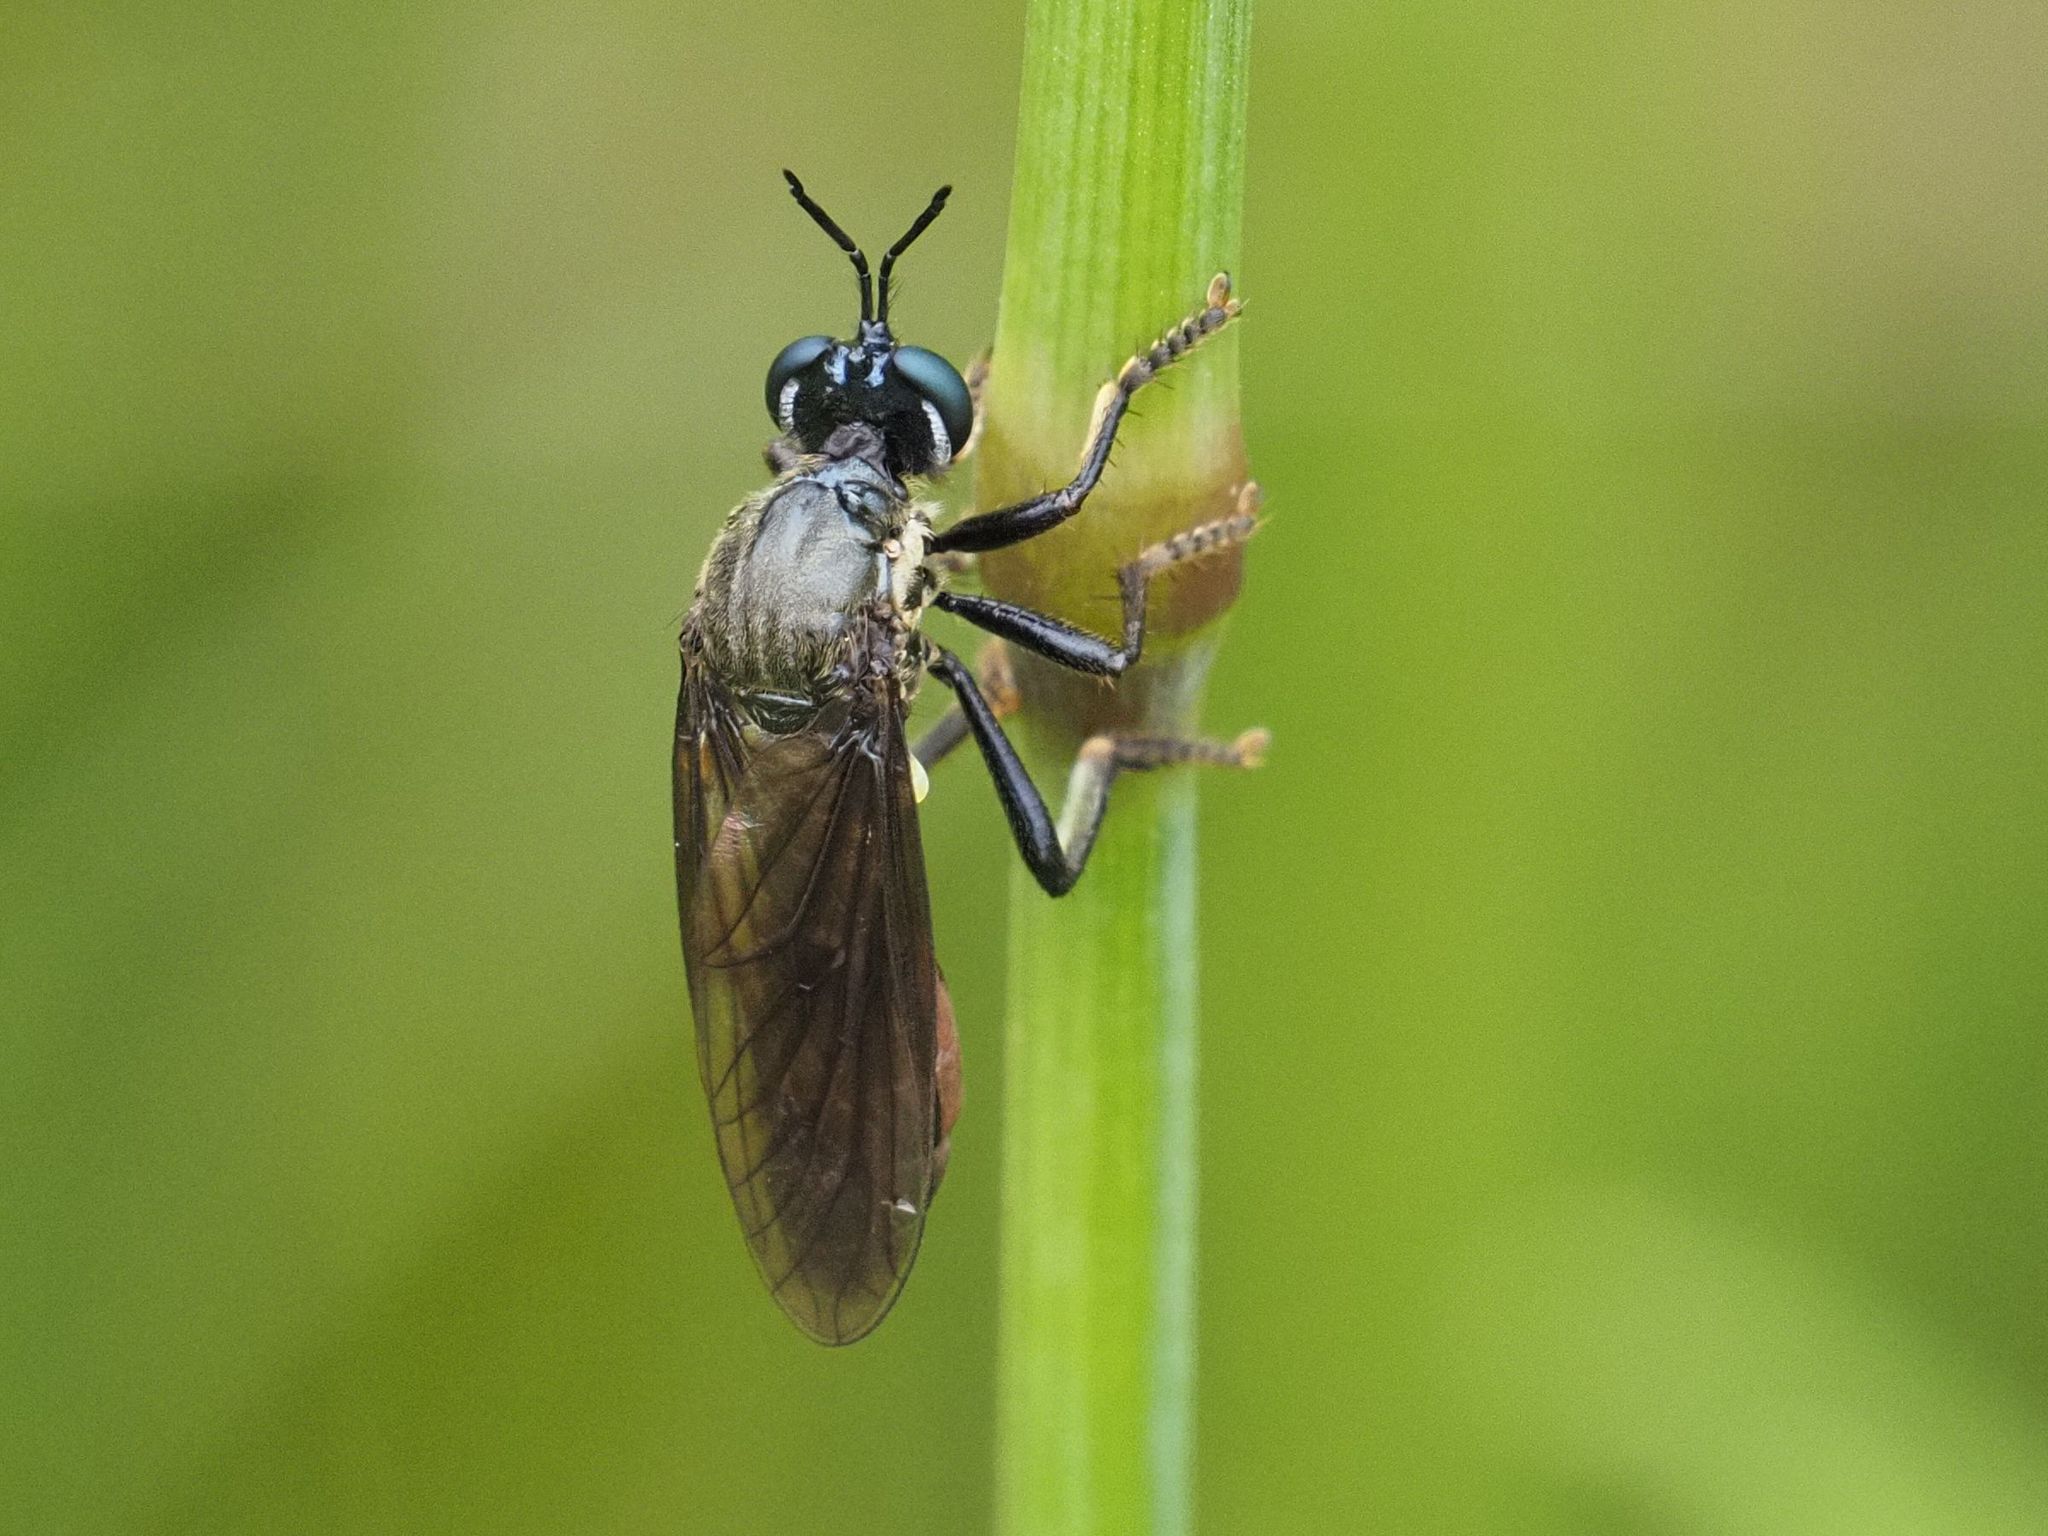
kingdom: Animalia
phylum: Arthropoda
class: Insecta
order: Diptera
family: Asilidae
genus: Dioctria
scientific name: Dioctria atricapilla
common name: Violet black-legged
